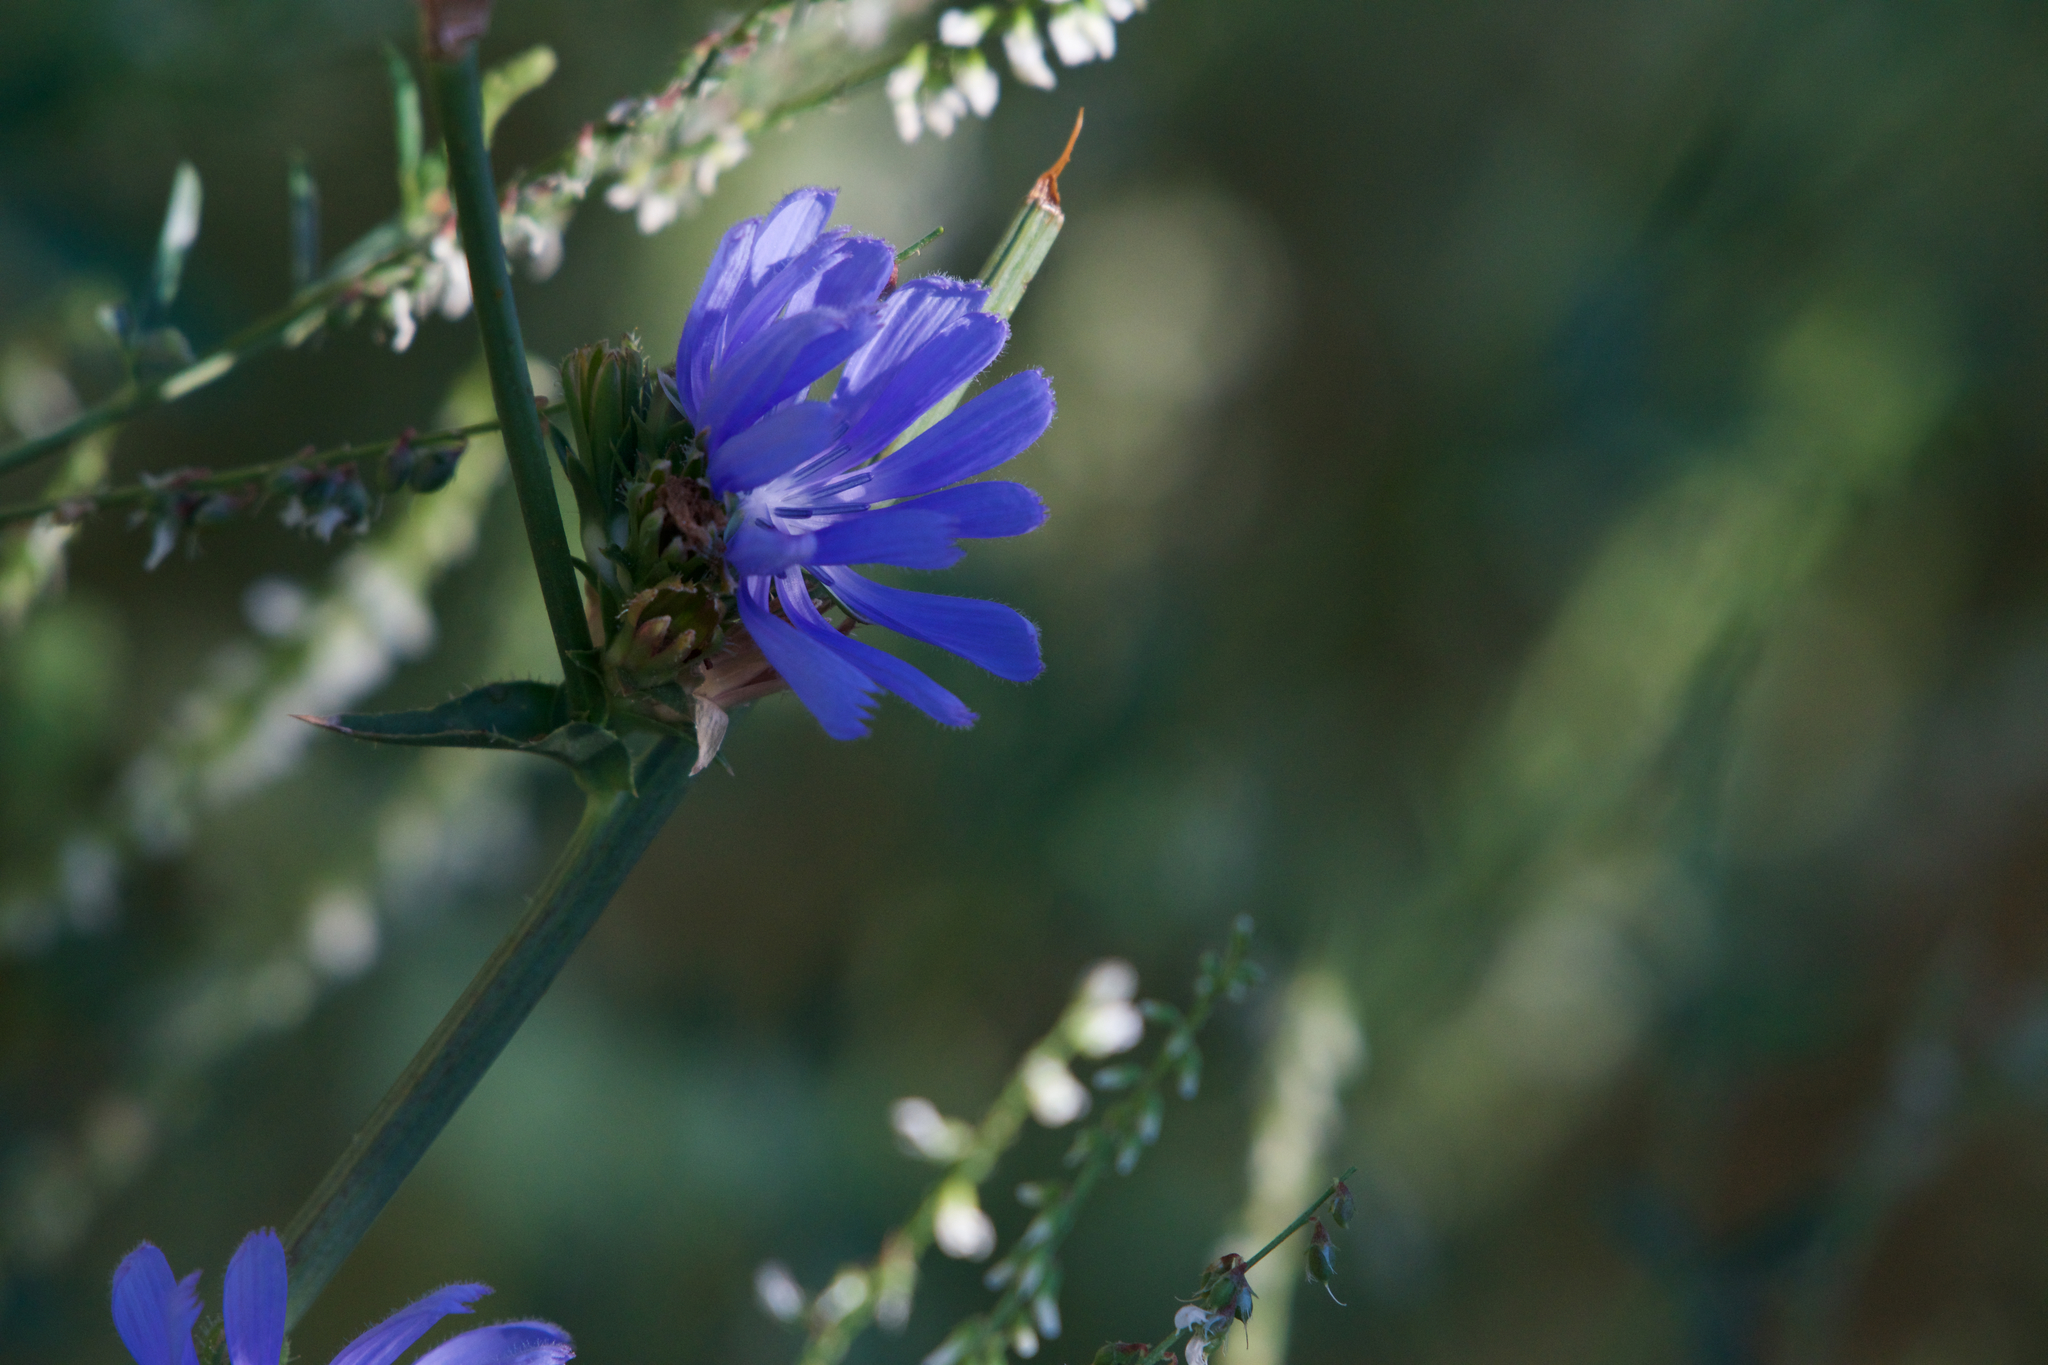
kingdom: Plantae
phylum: Tracheophyta
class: Magnoliopsida
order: Asterales
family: Asteraceae
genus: Cichorium
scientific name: Cichorium intybus
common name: Chicory
